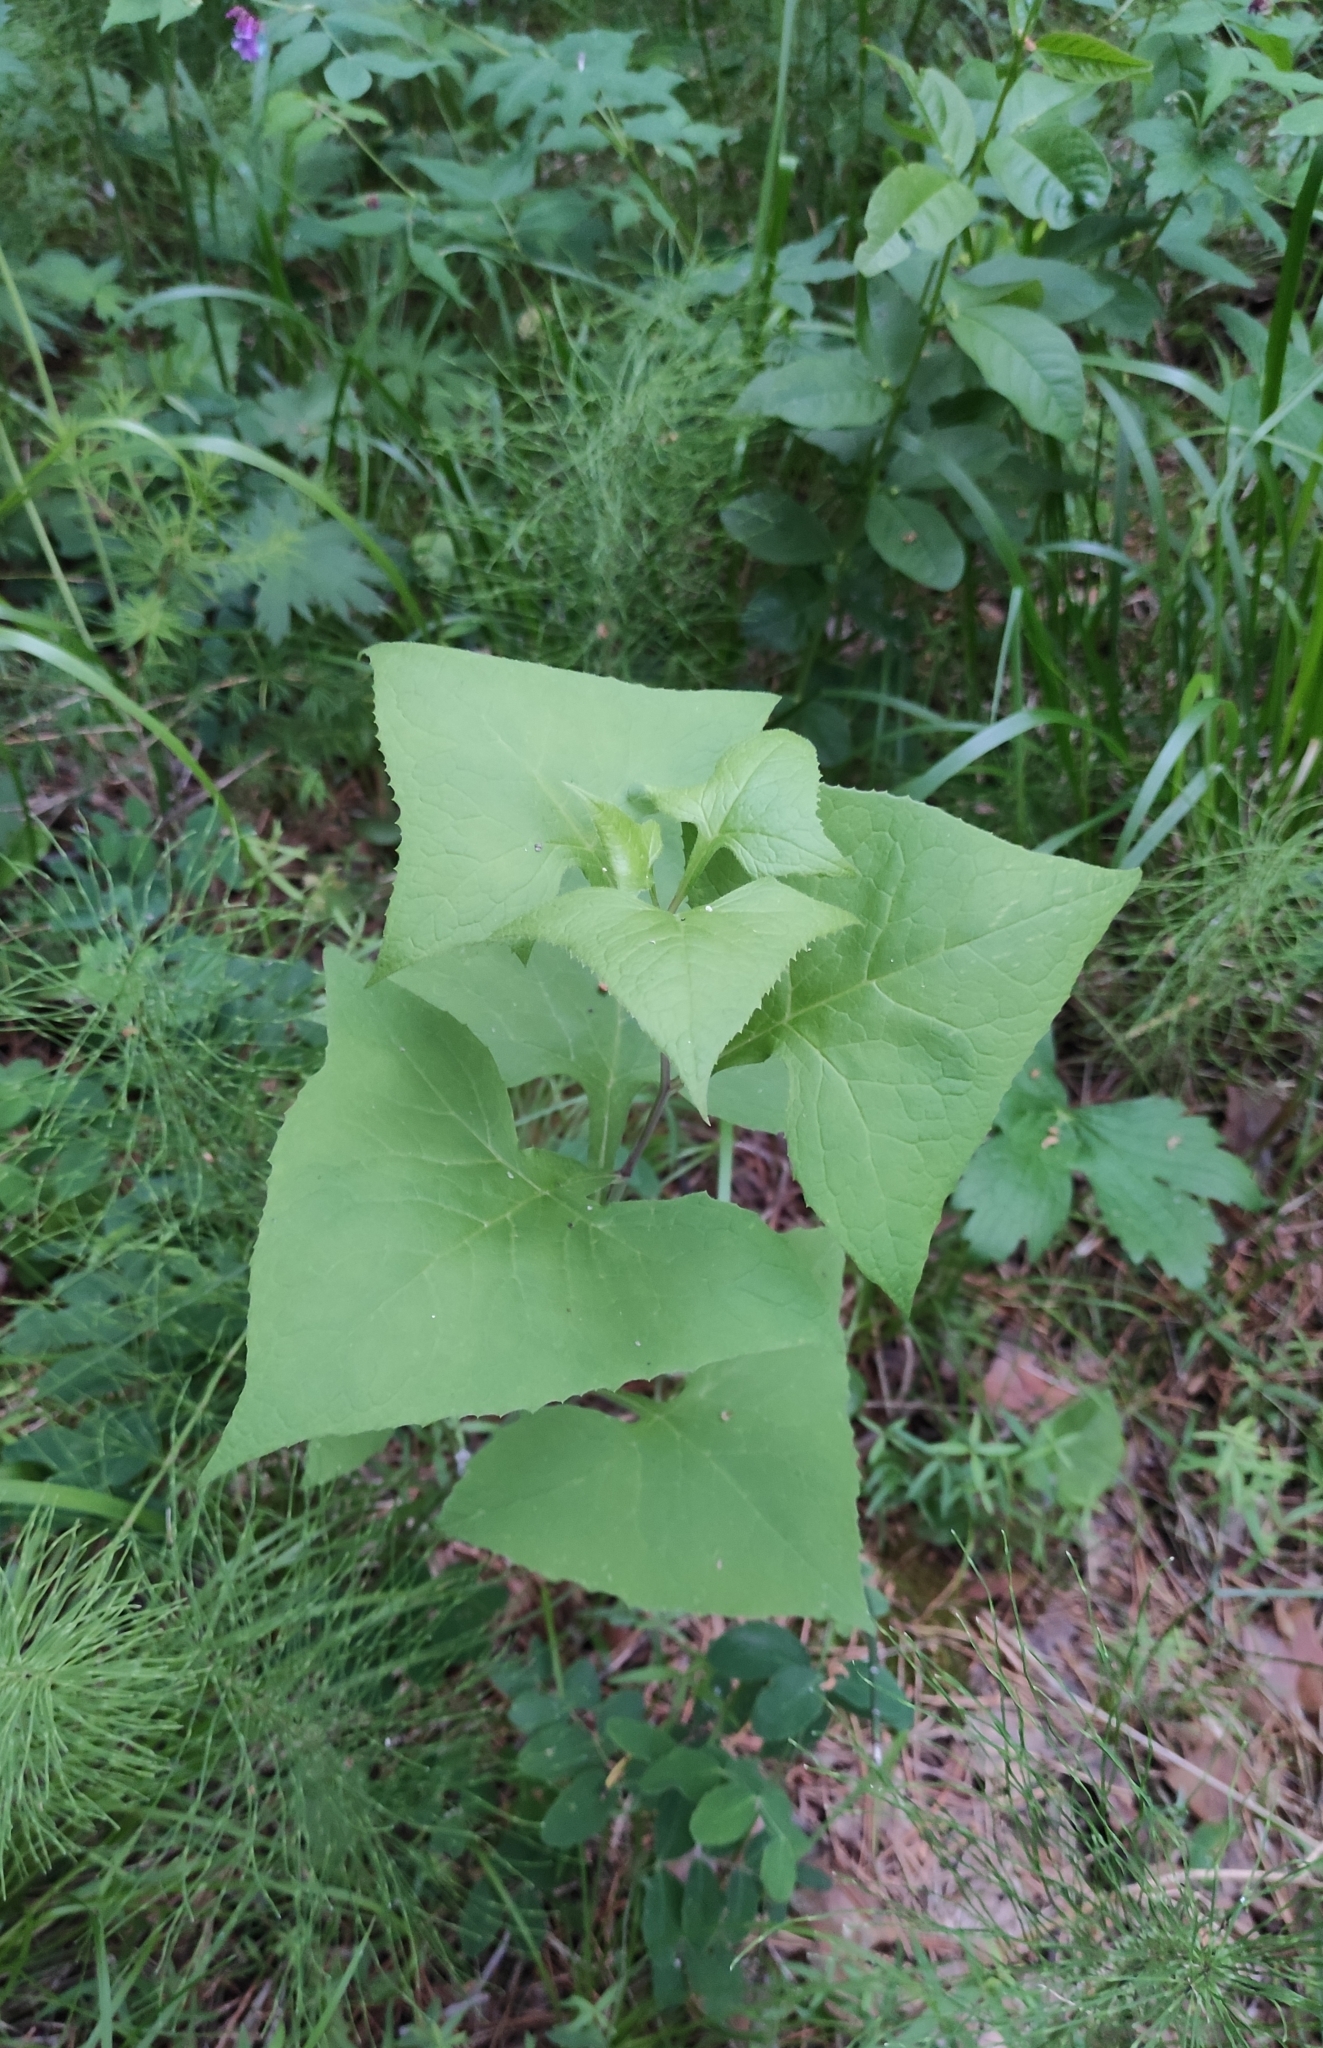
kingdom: Plantae
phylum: Tracheophyta
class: Magnoliopsida
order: Asterales
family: Asteraceae
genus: Parasenecio
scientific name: Parasenecio hastatus
